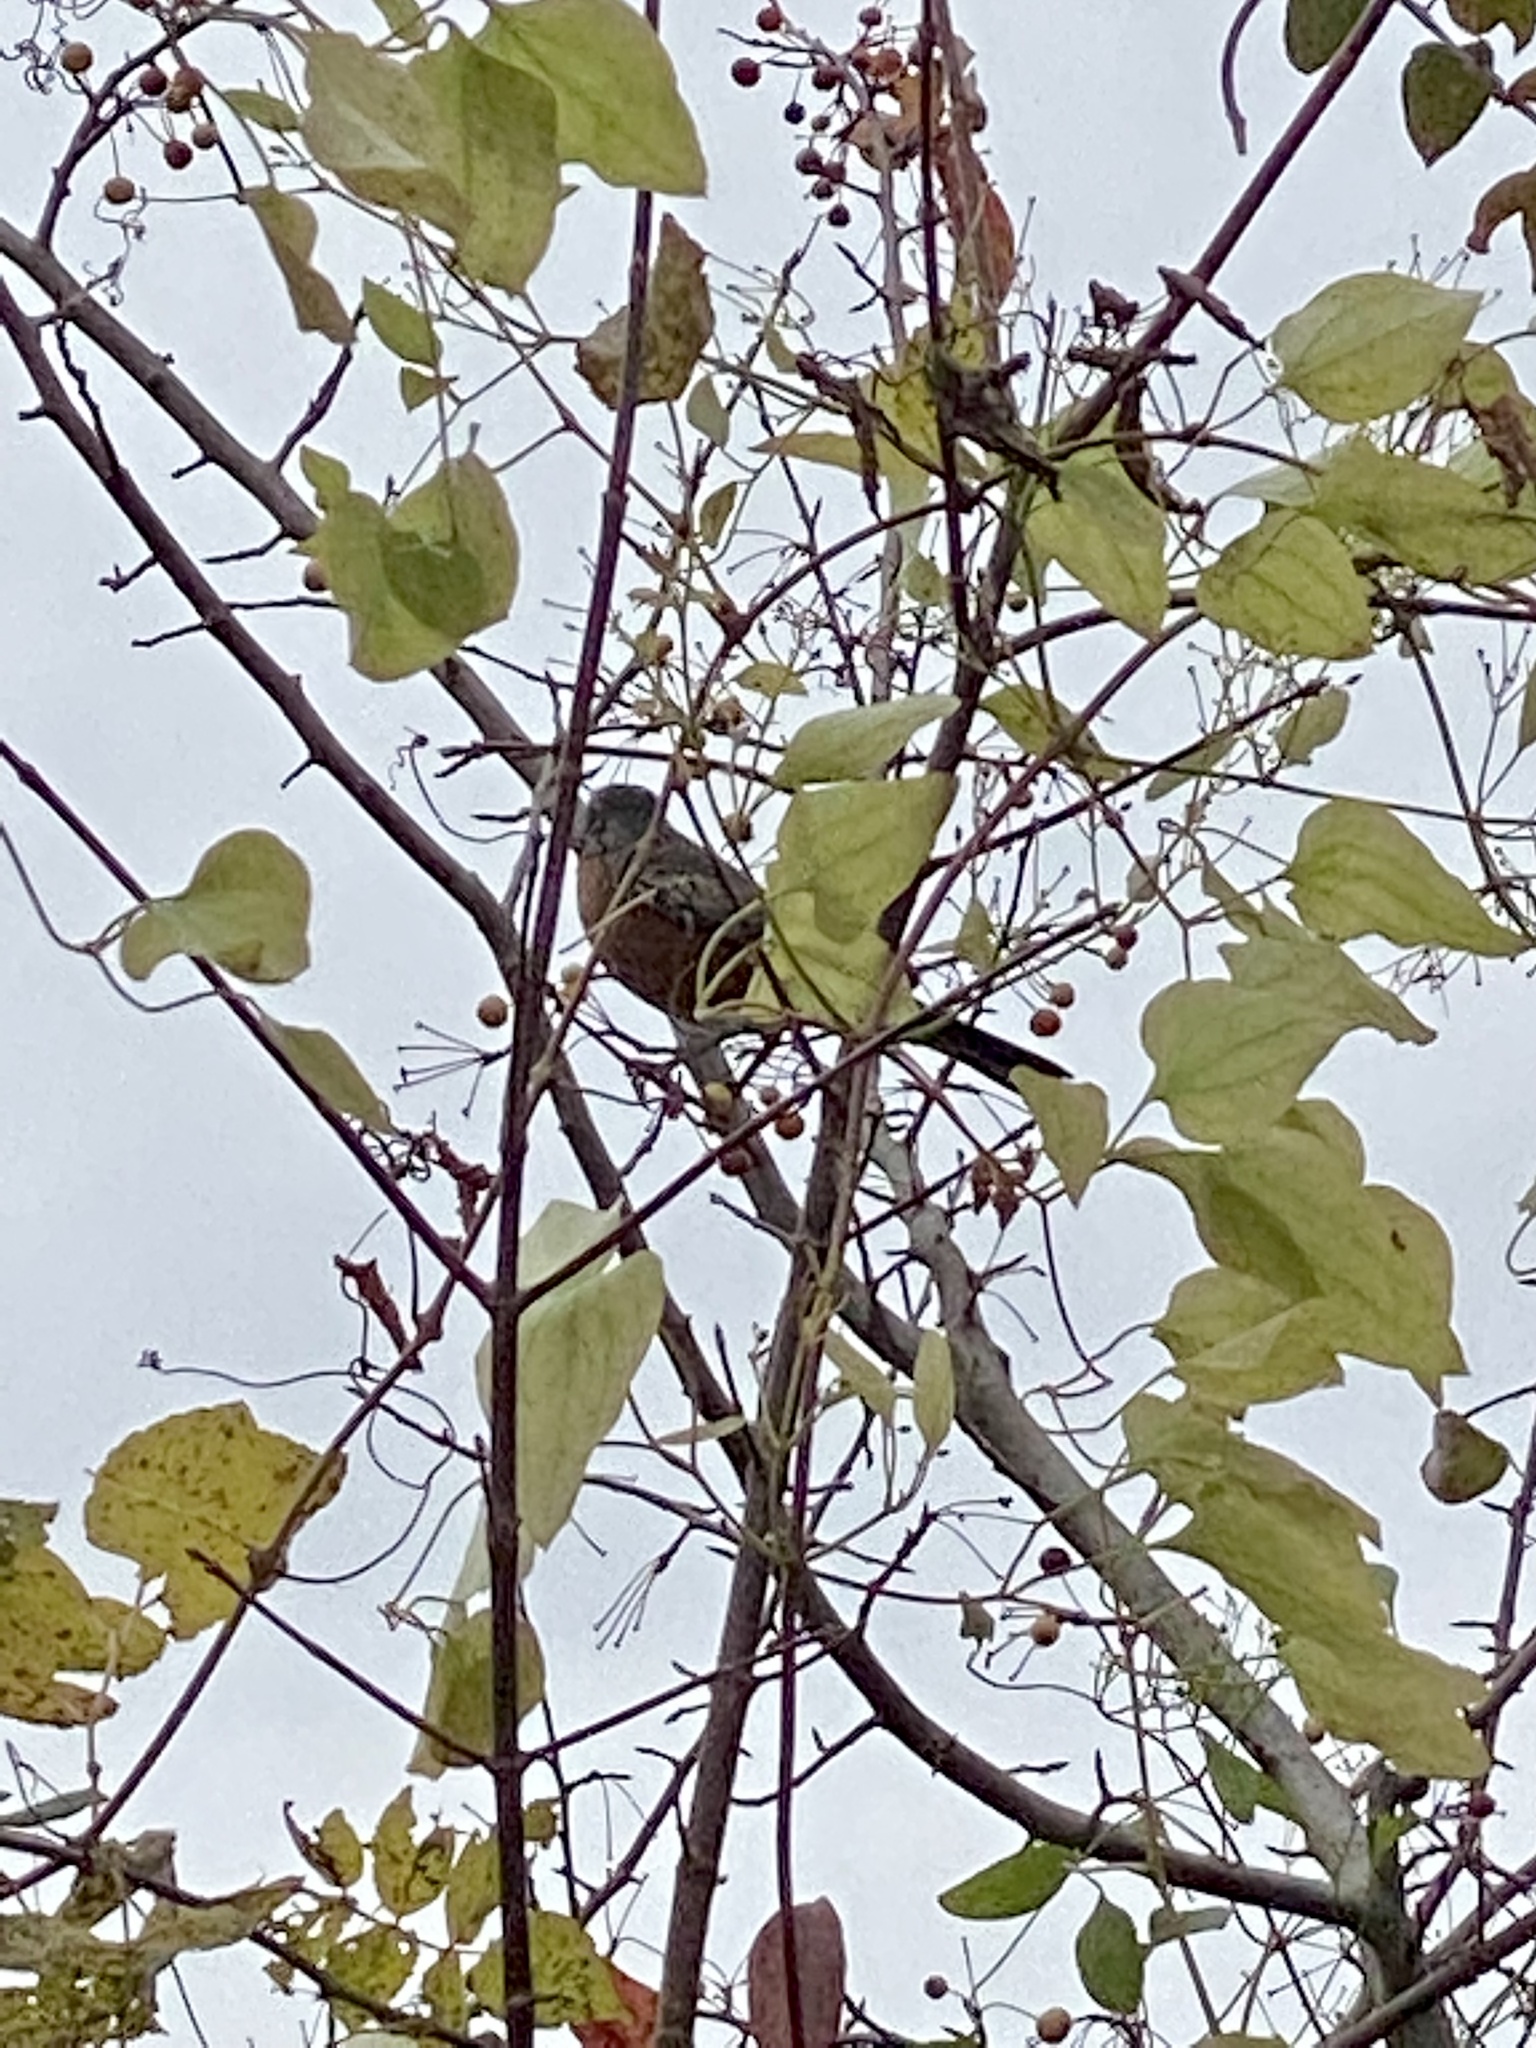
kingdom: Animalia
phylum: Chordata
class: Aves
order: Passeriformes
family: Turdidae
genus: Turdus
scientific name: Turdus migratorius
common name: American robin
